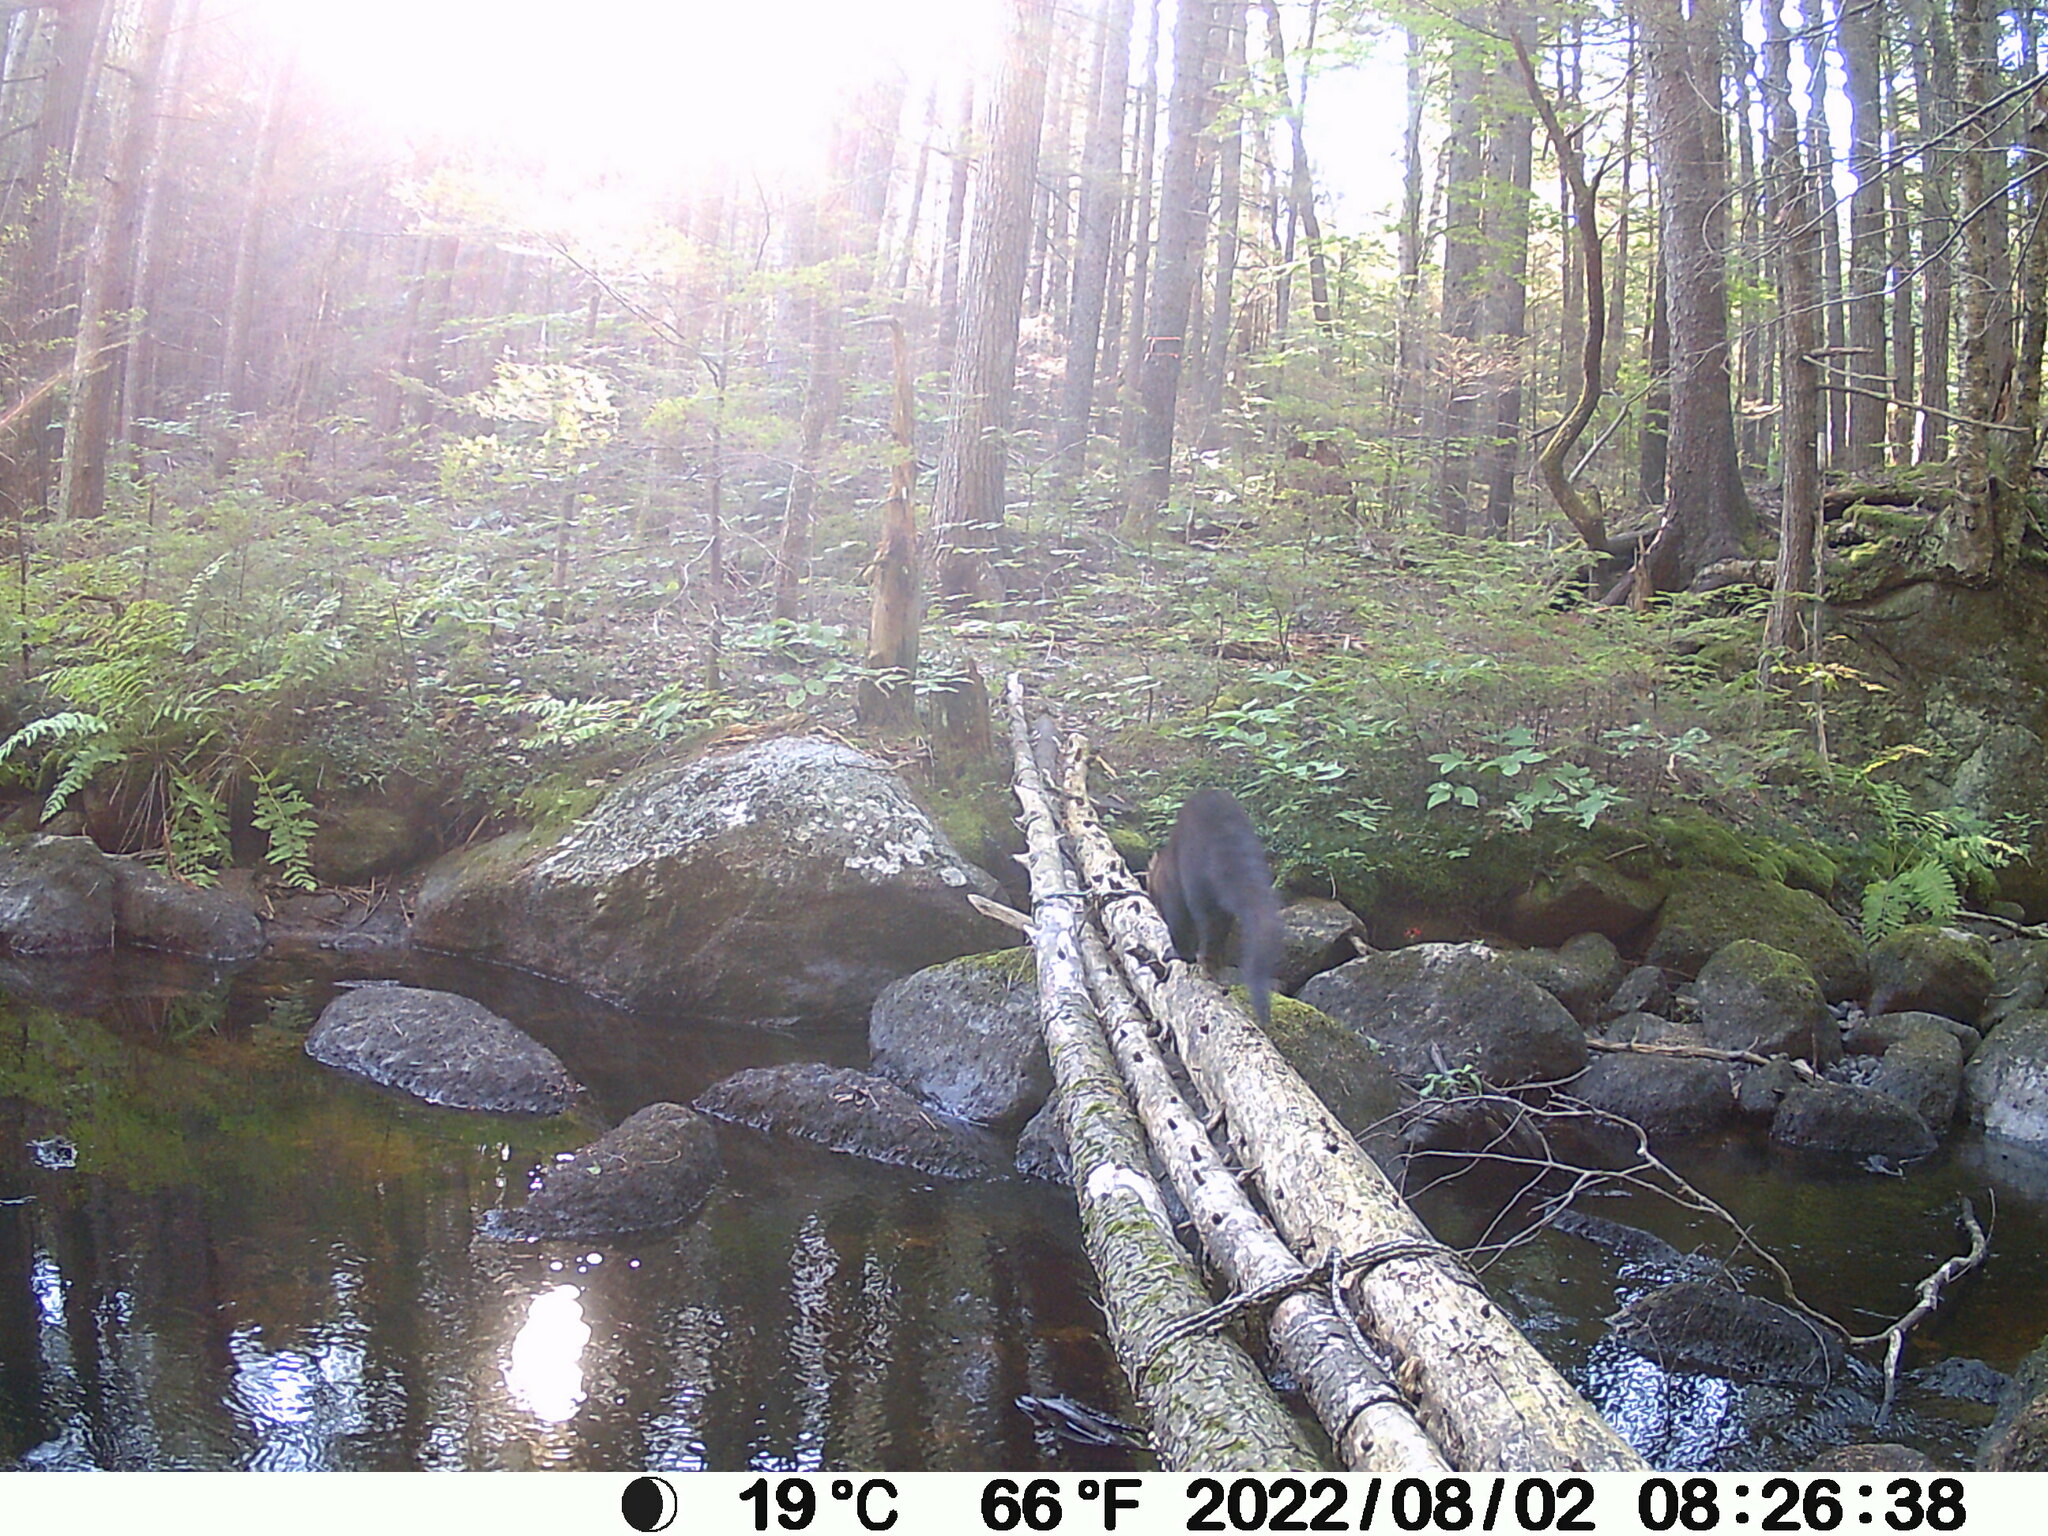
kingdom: Animalia
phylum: Chordata
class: Mammalia
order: Carnivora
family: Mustelidae
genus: Pekania
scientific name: Pekania pennanti
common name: Fisher
